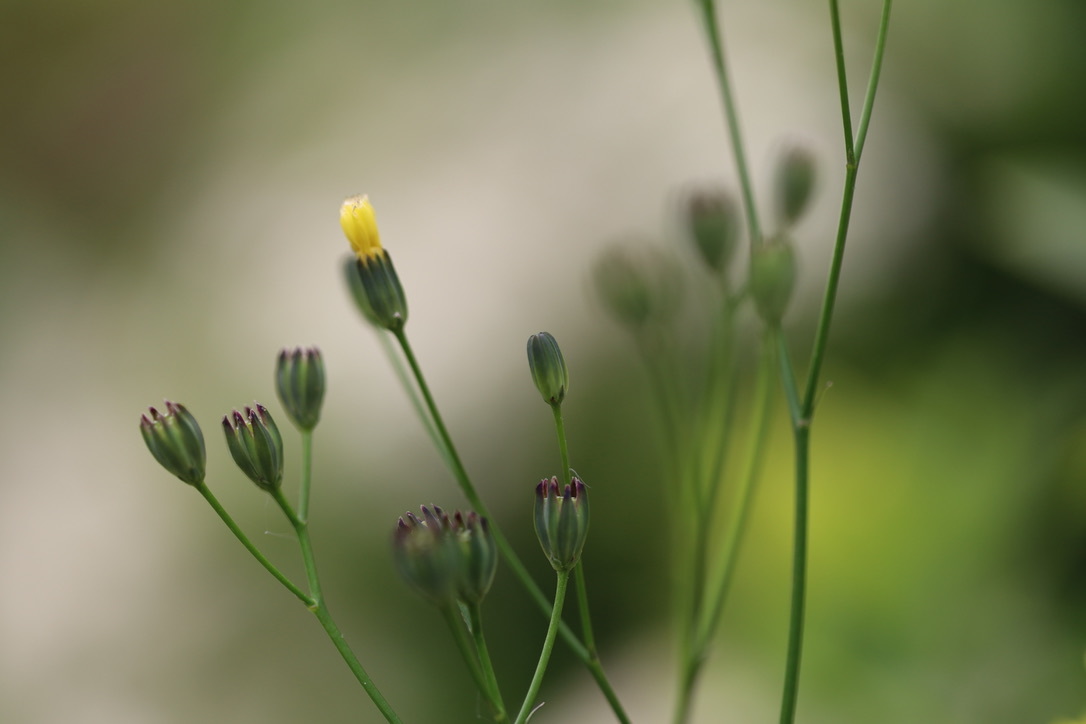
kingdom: Plantae
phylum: Tracheophyta
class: Magnoliopsida
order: Asterales
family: Asteraceae
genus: Lapsana
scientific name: Lapsana communis
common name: Nipplewort
